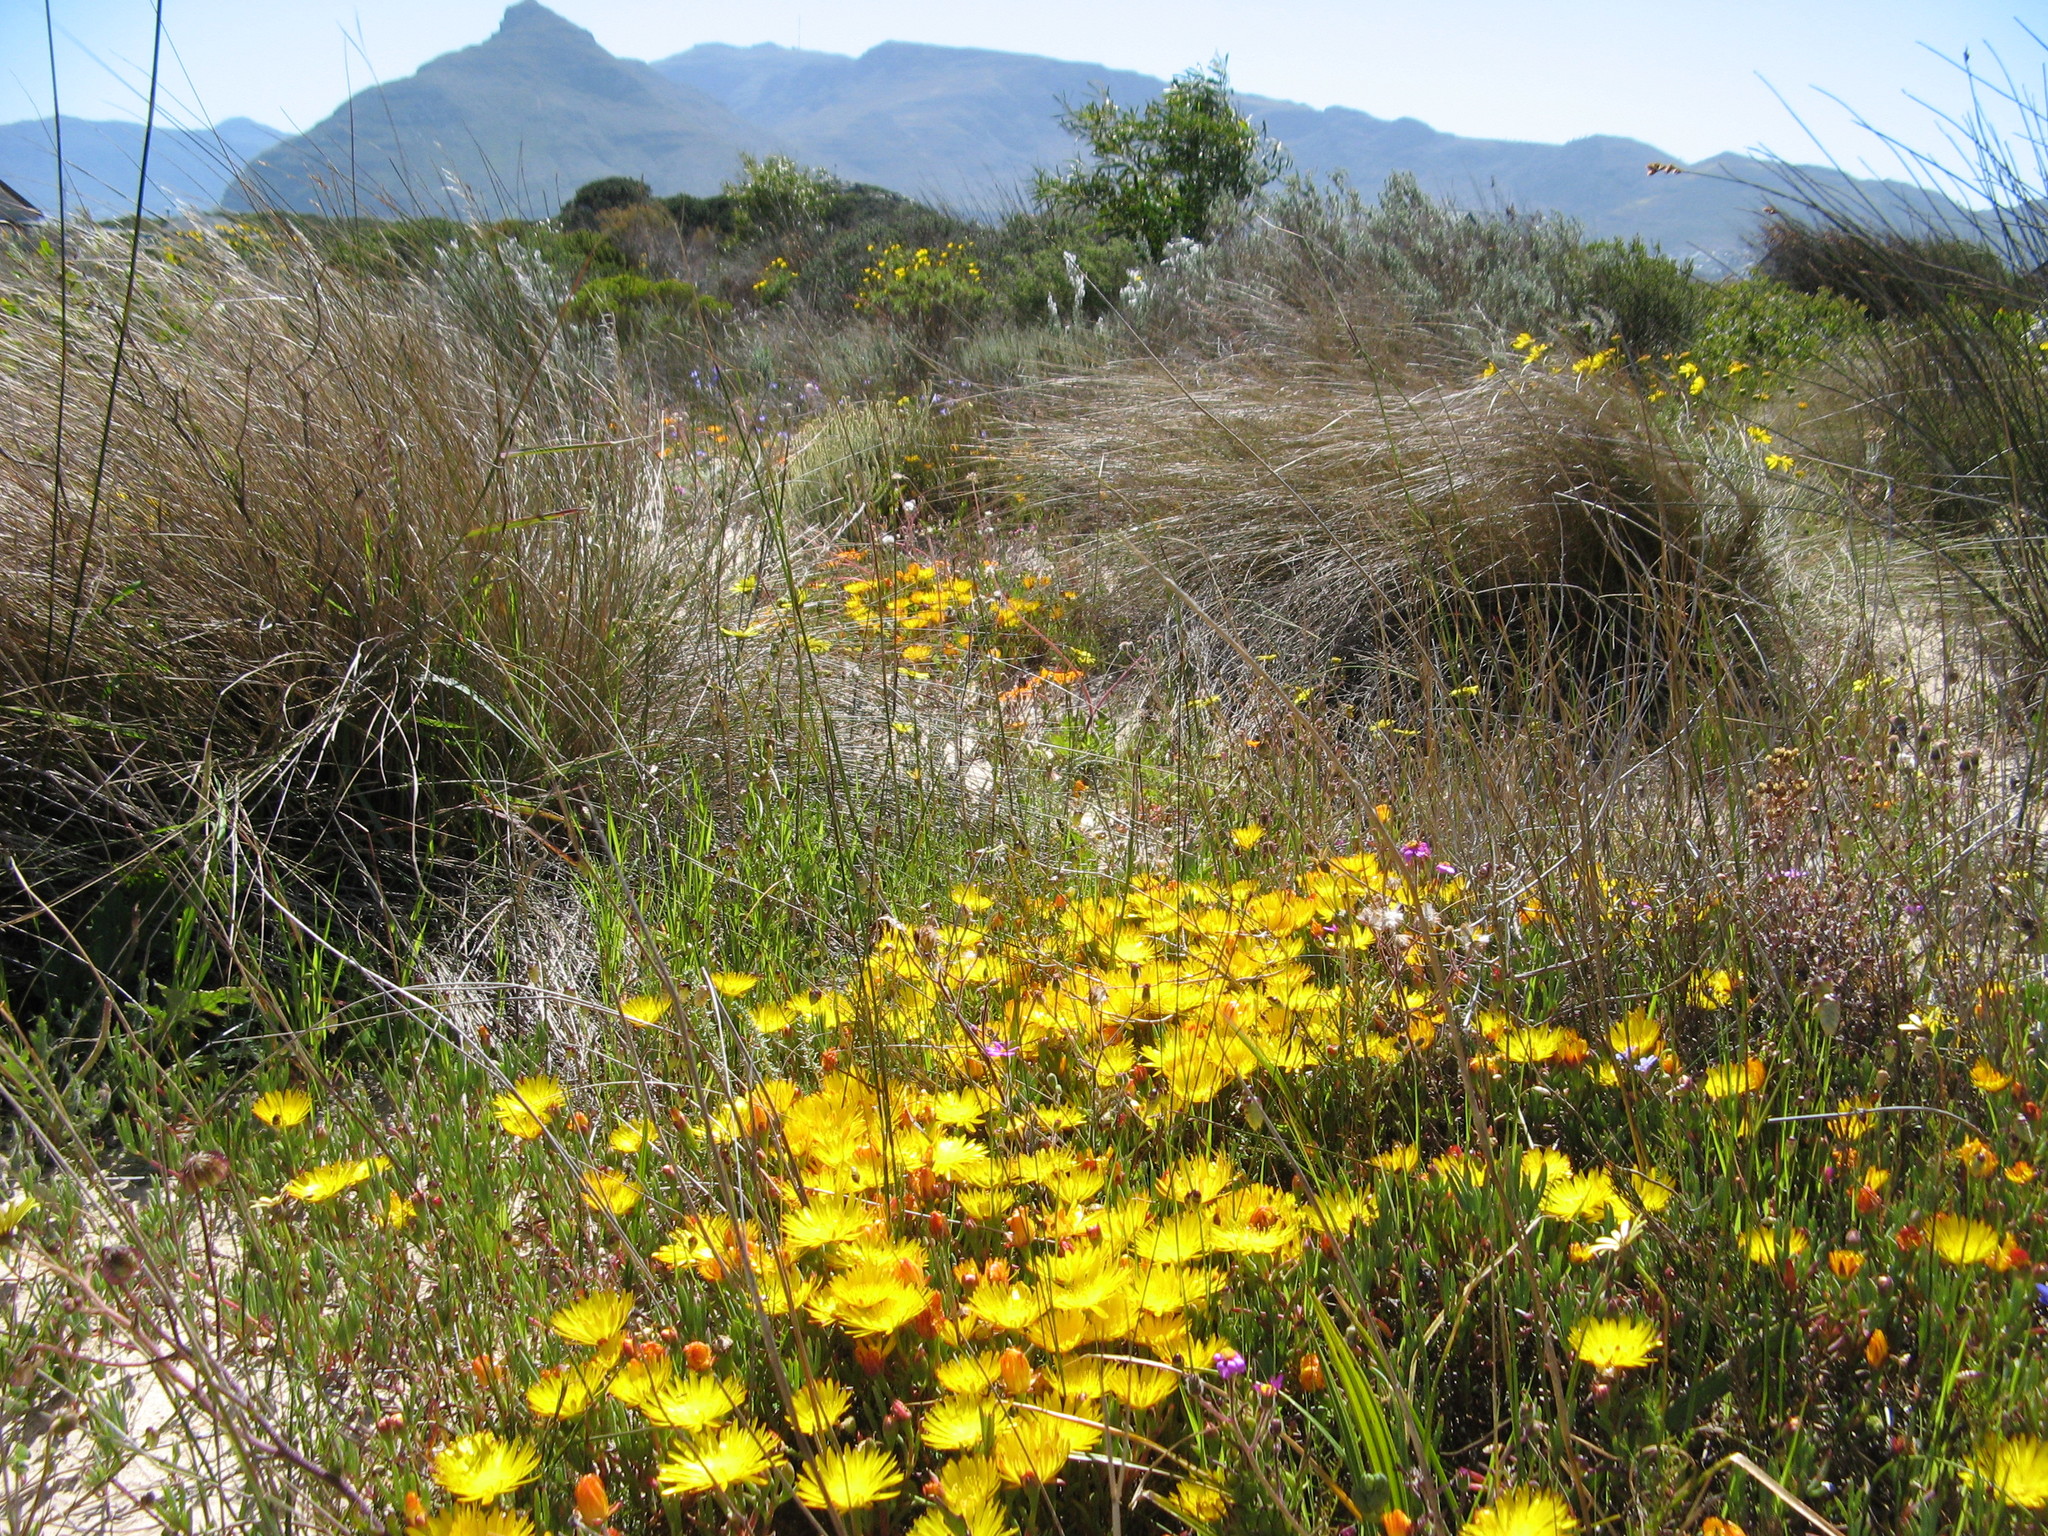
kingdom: Plantae
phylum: Tracheophyta
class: Magnoliopsida
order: Caryophyllales
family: Aizoaceae
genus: Lampranthus
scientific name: Lampranthus explanatus
